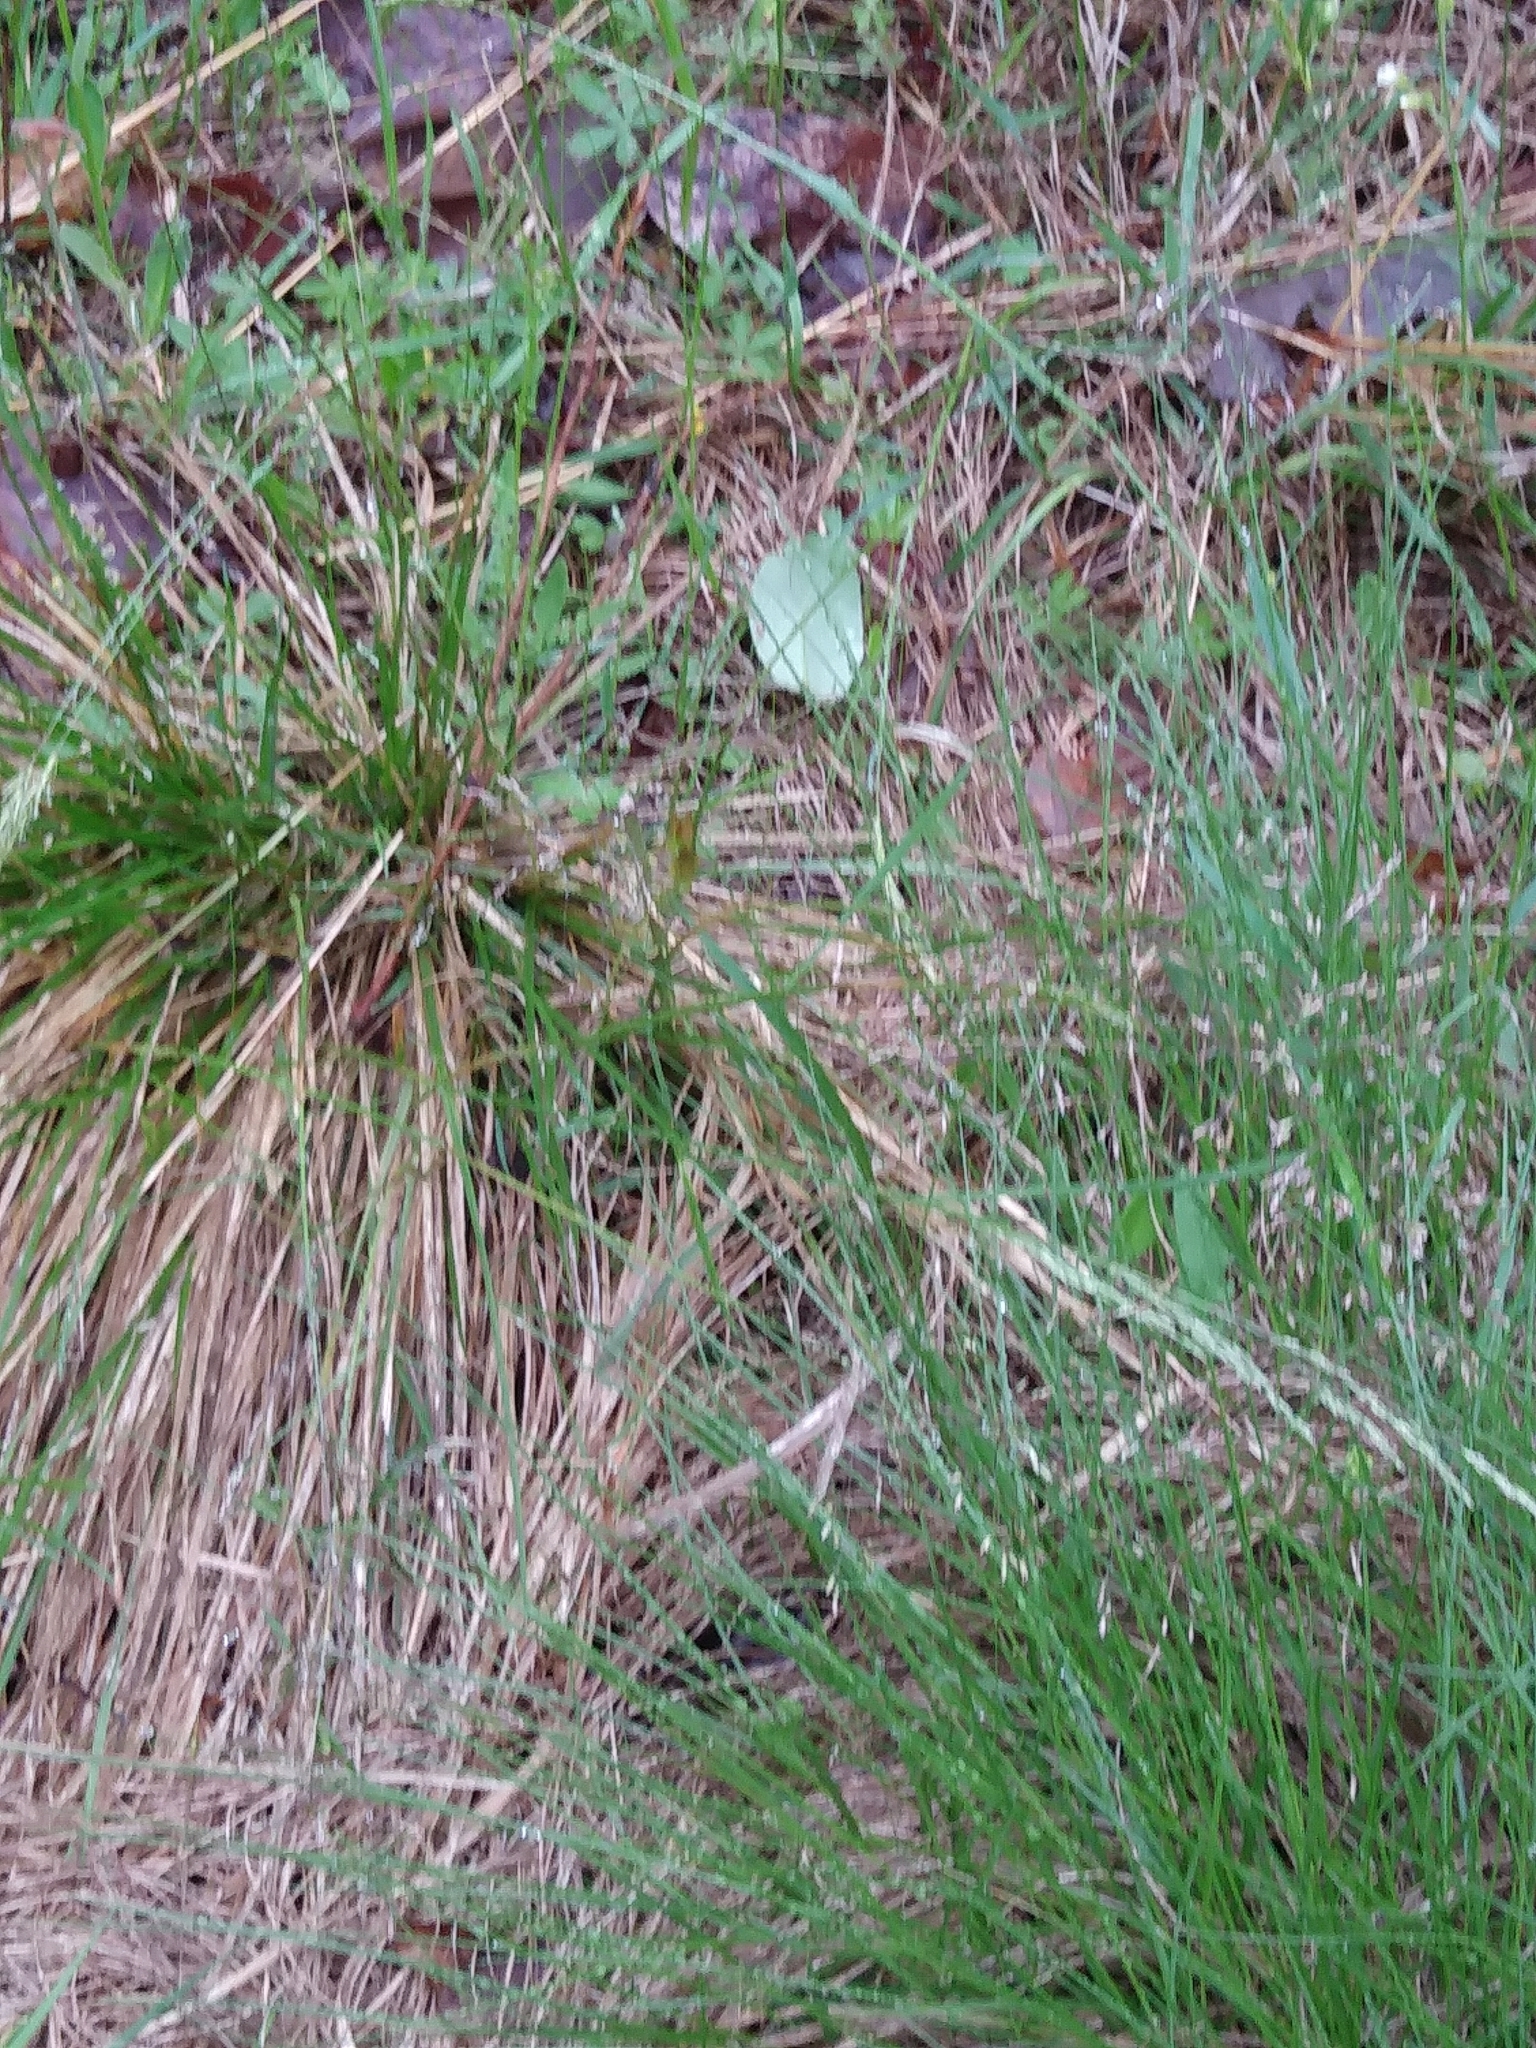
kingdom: Plantae
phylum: Tracheophyta
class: Liliopsida
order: Poales
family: Poaceae
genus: Sporobolus
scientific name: Sporobolus heterolepis
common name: Prairie dropseed
